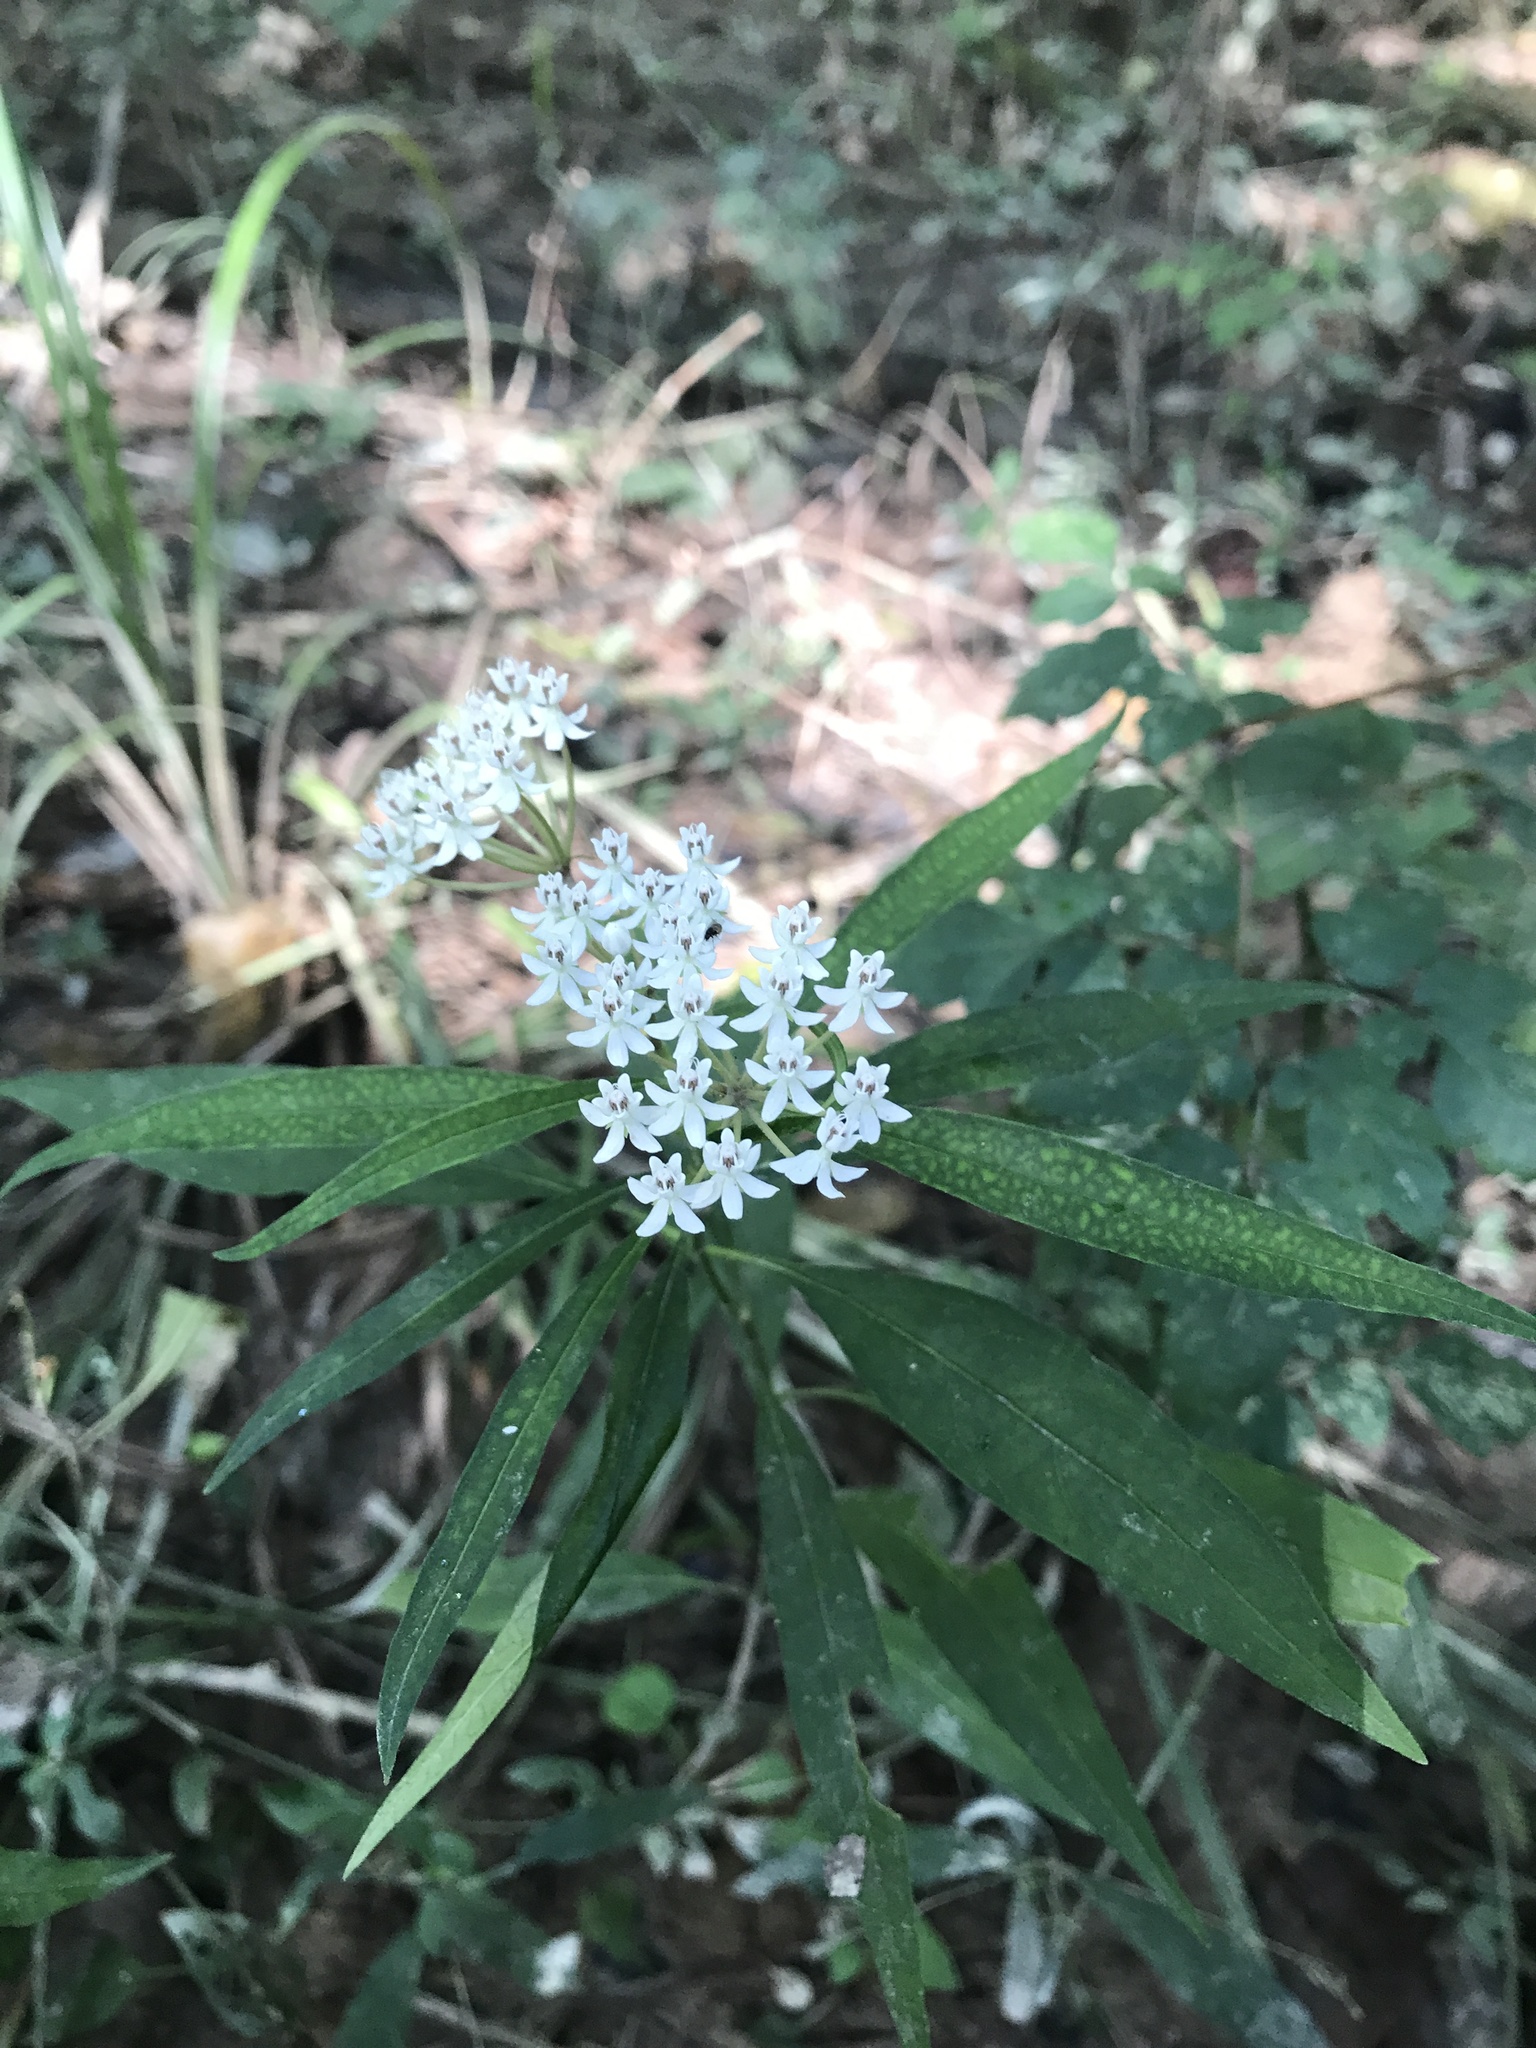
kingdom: Plantae
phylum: Tracheophyta
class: Magnoliopsida
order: Gentianales
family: Apocynaceae
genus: Asclepias
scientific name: Asclepias perennis
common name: Smooth-seed milkweed
